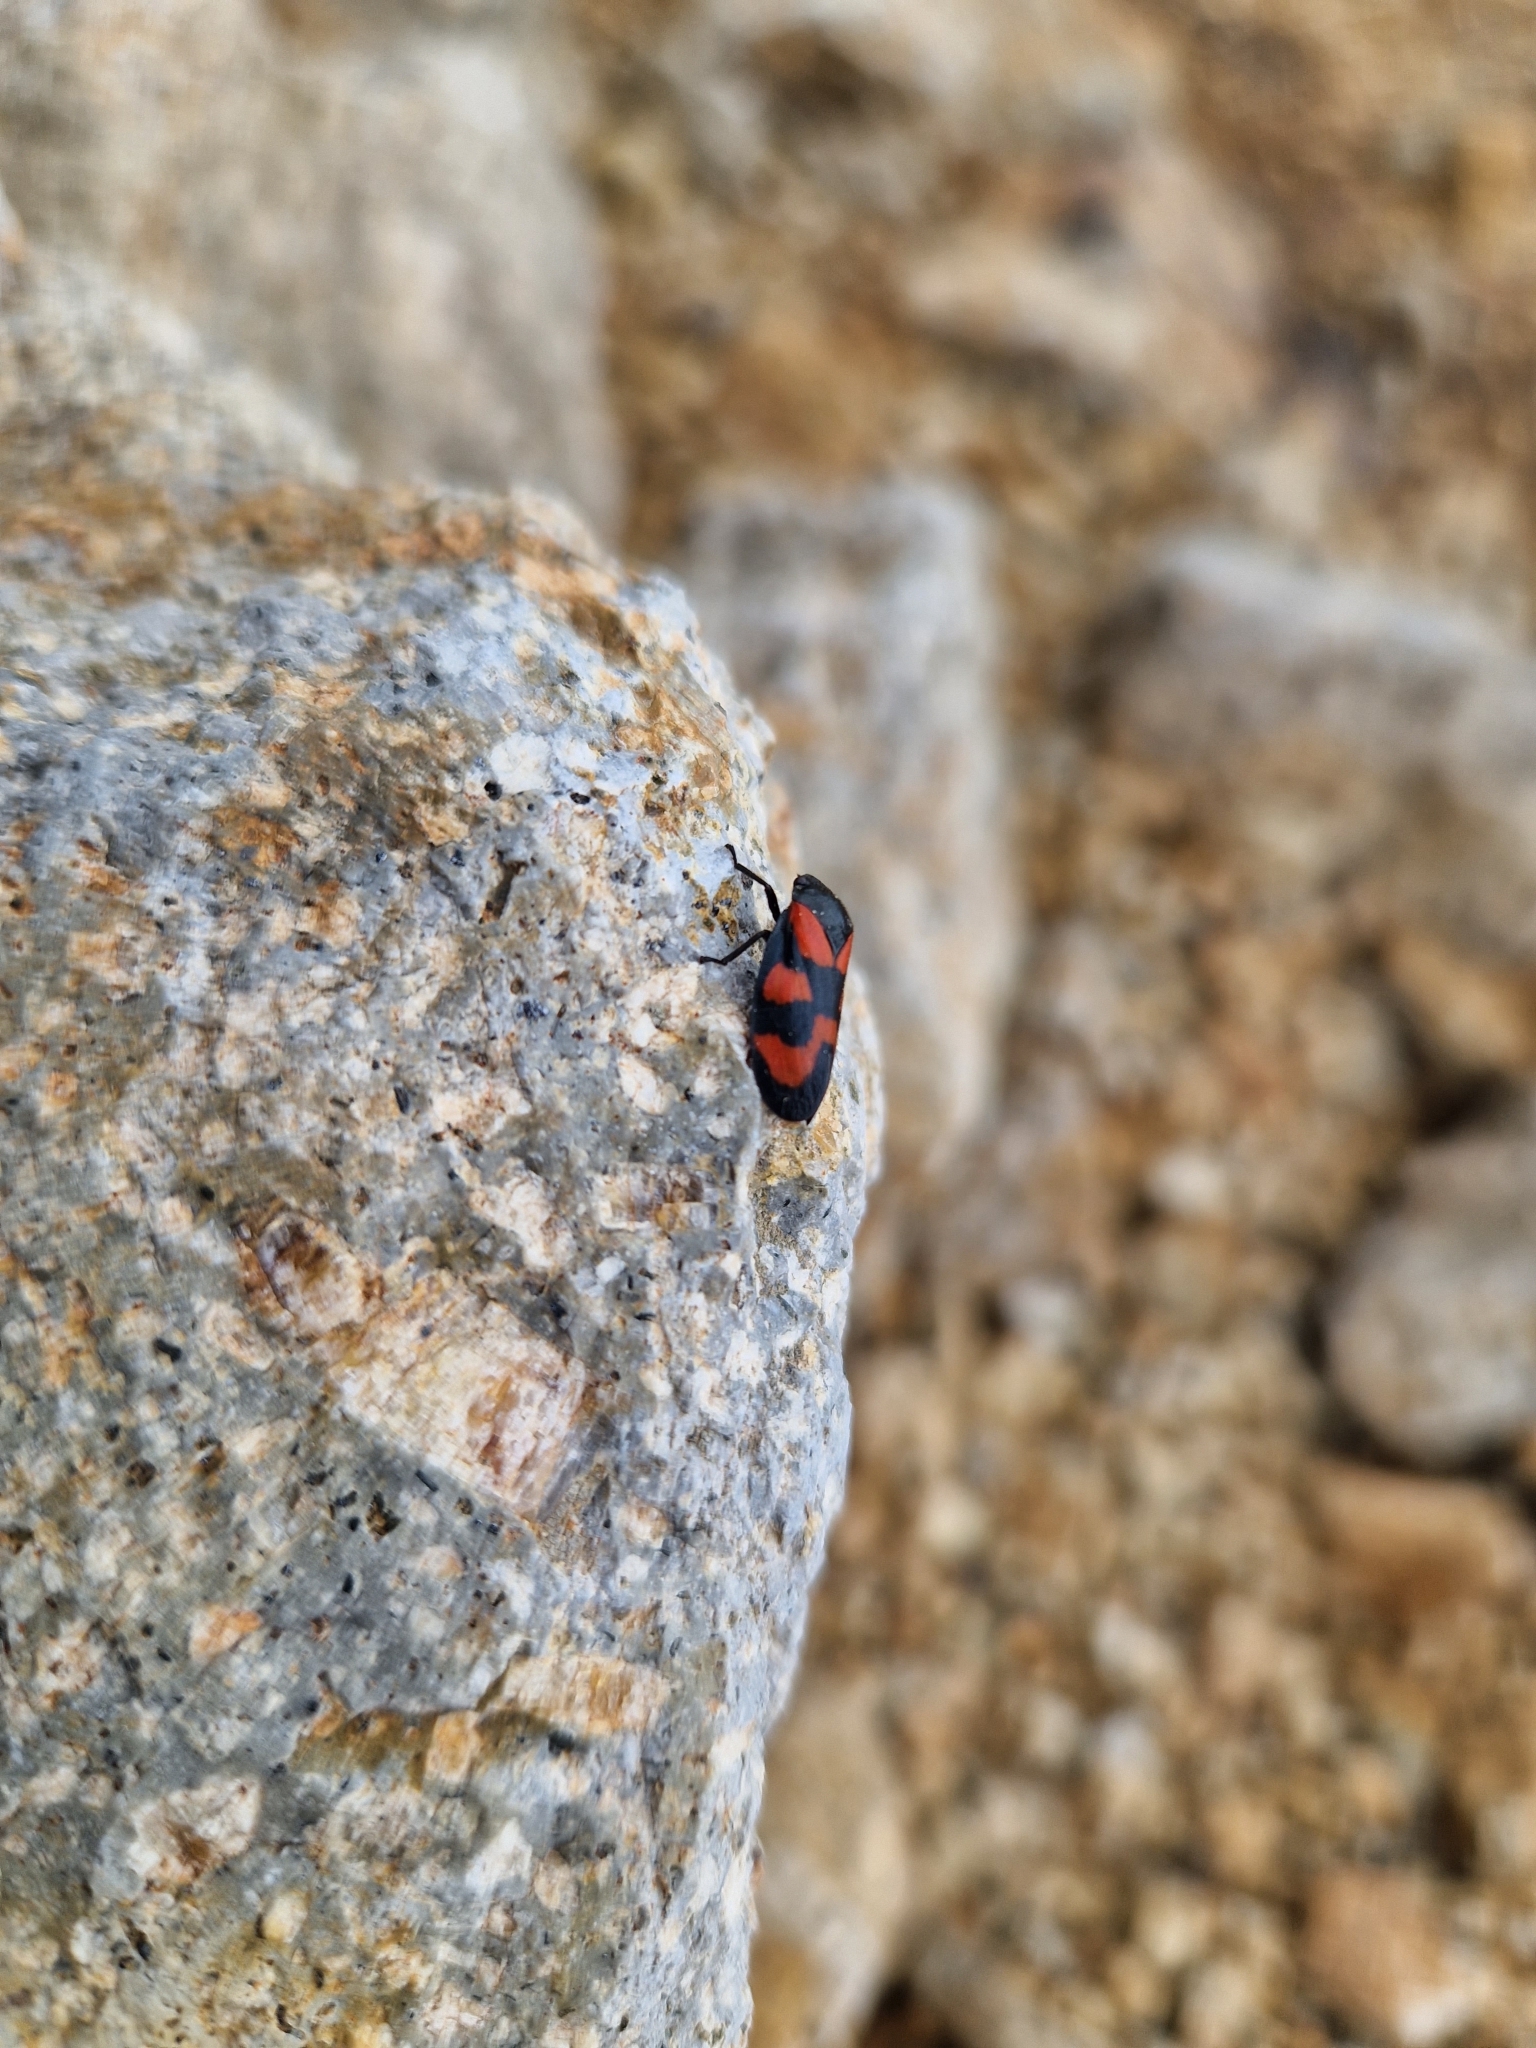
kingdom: Animalia
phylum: Arthropoda
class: Insecta
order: Hemiptera
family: Cercopidae
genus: Cercopis
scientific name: Cercopis vulnerata
